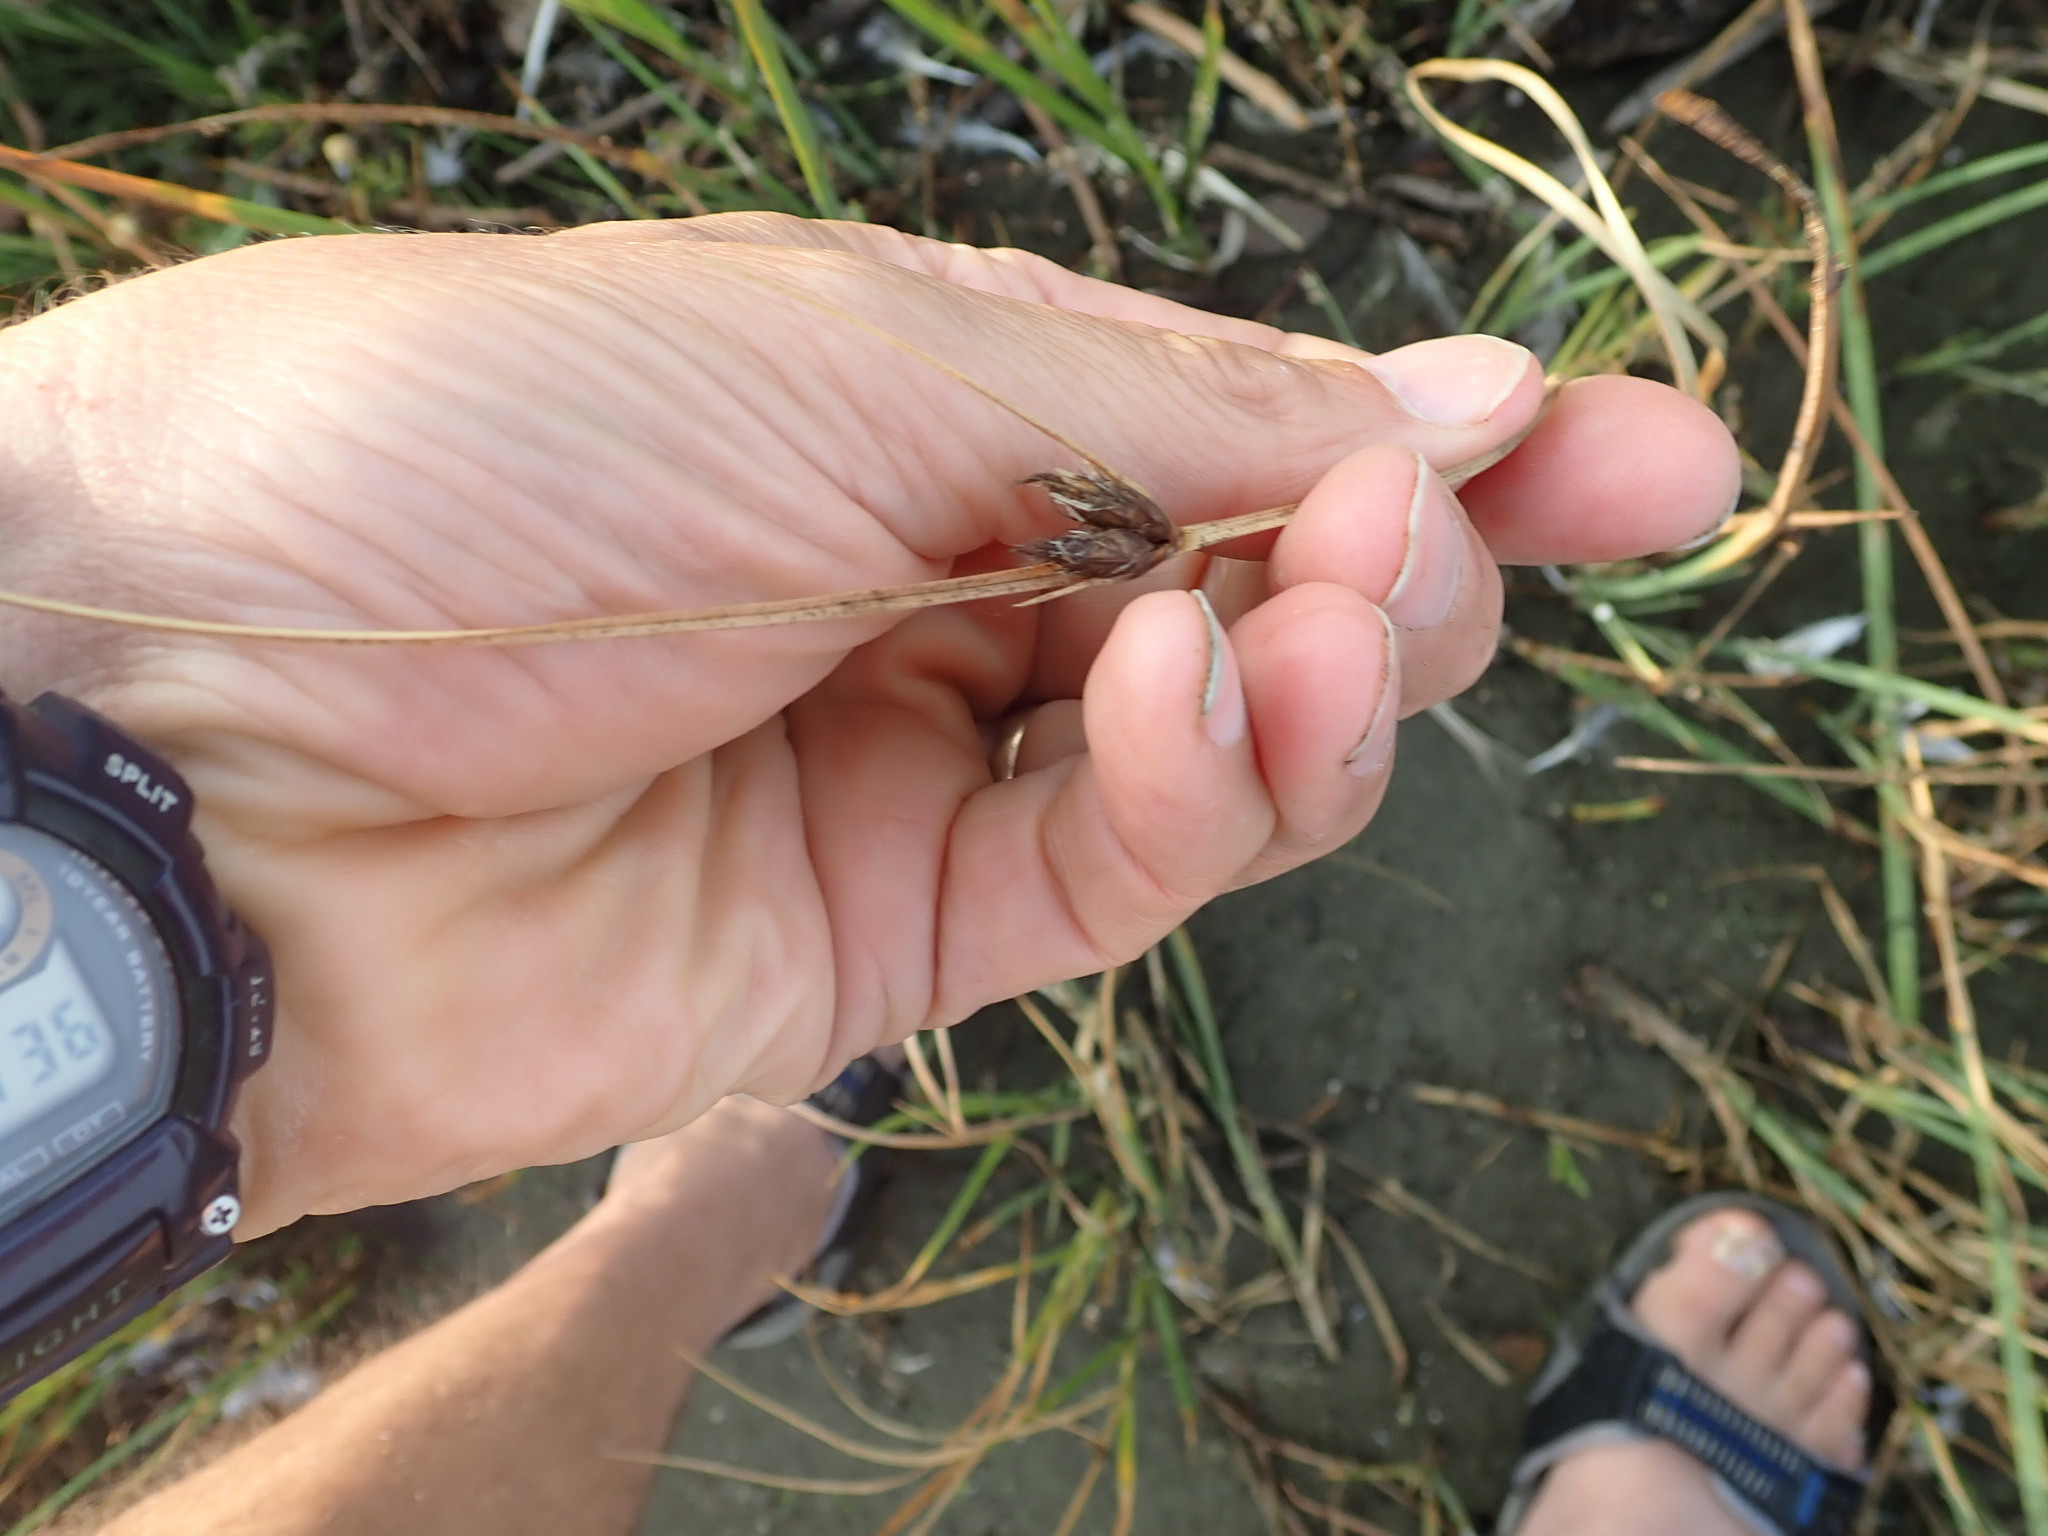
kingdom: Plantae
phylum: Tracheophyta
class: Liliopsida
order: Poales
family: Cyperaceae
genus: Schoenoplectus
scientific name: Schoenoplectus pungens
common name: Sharp club-rush
